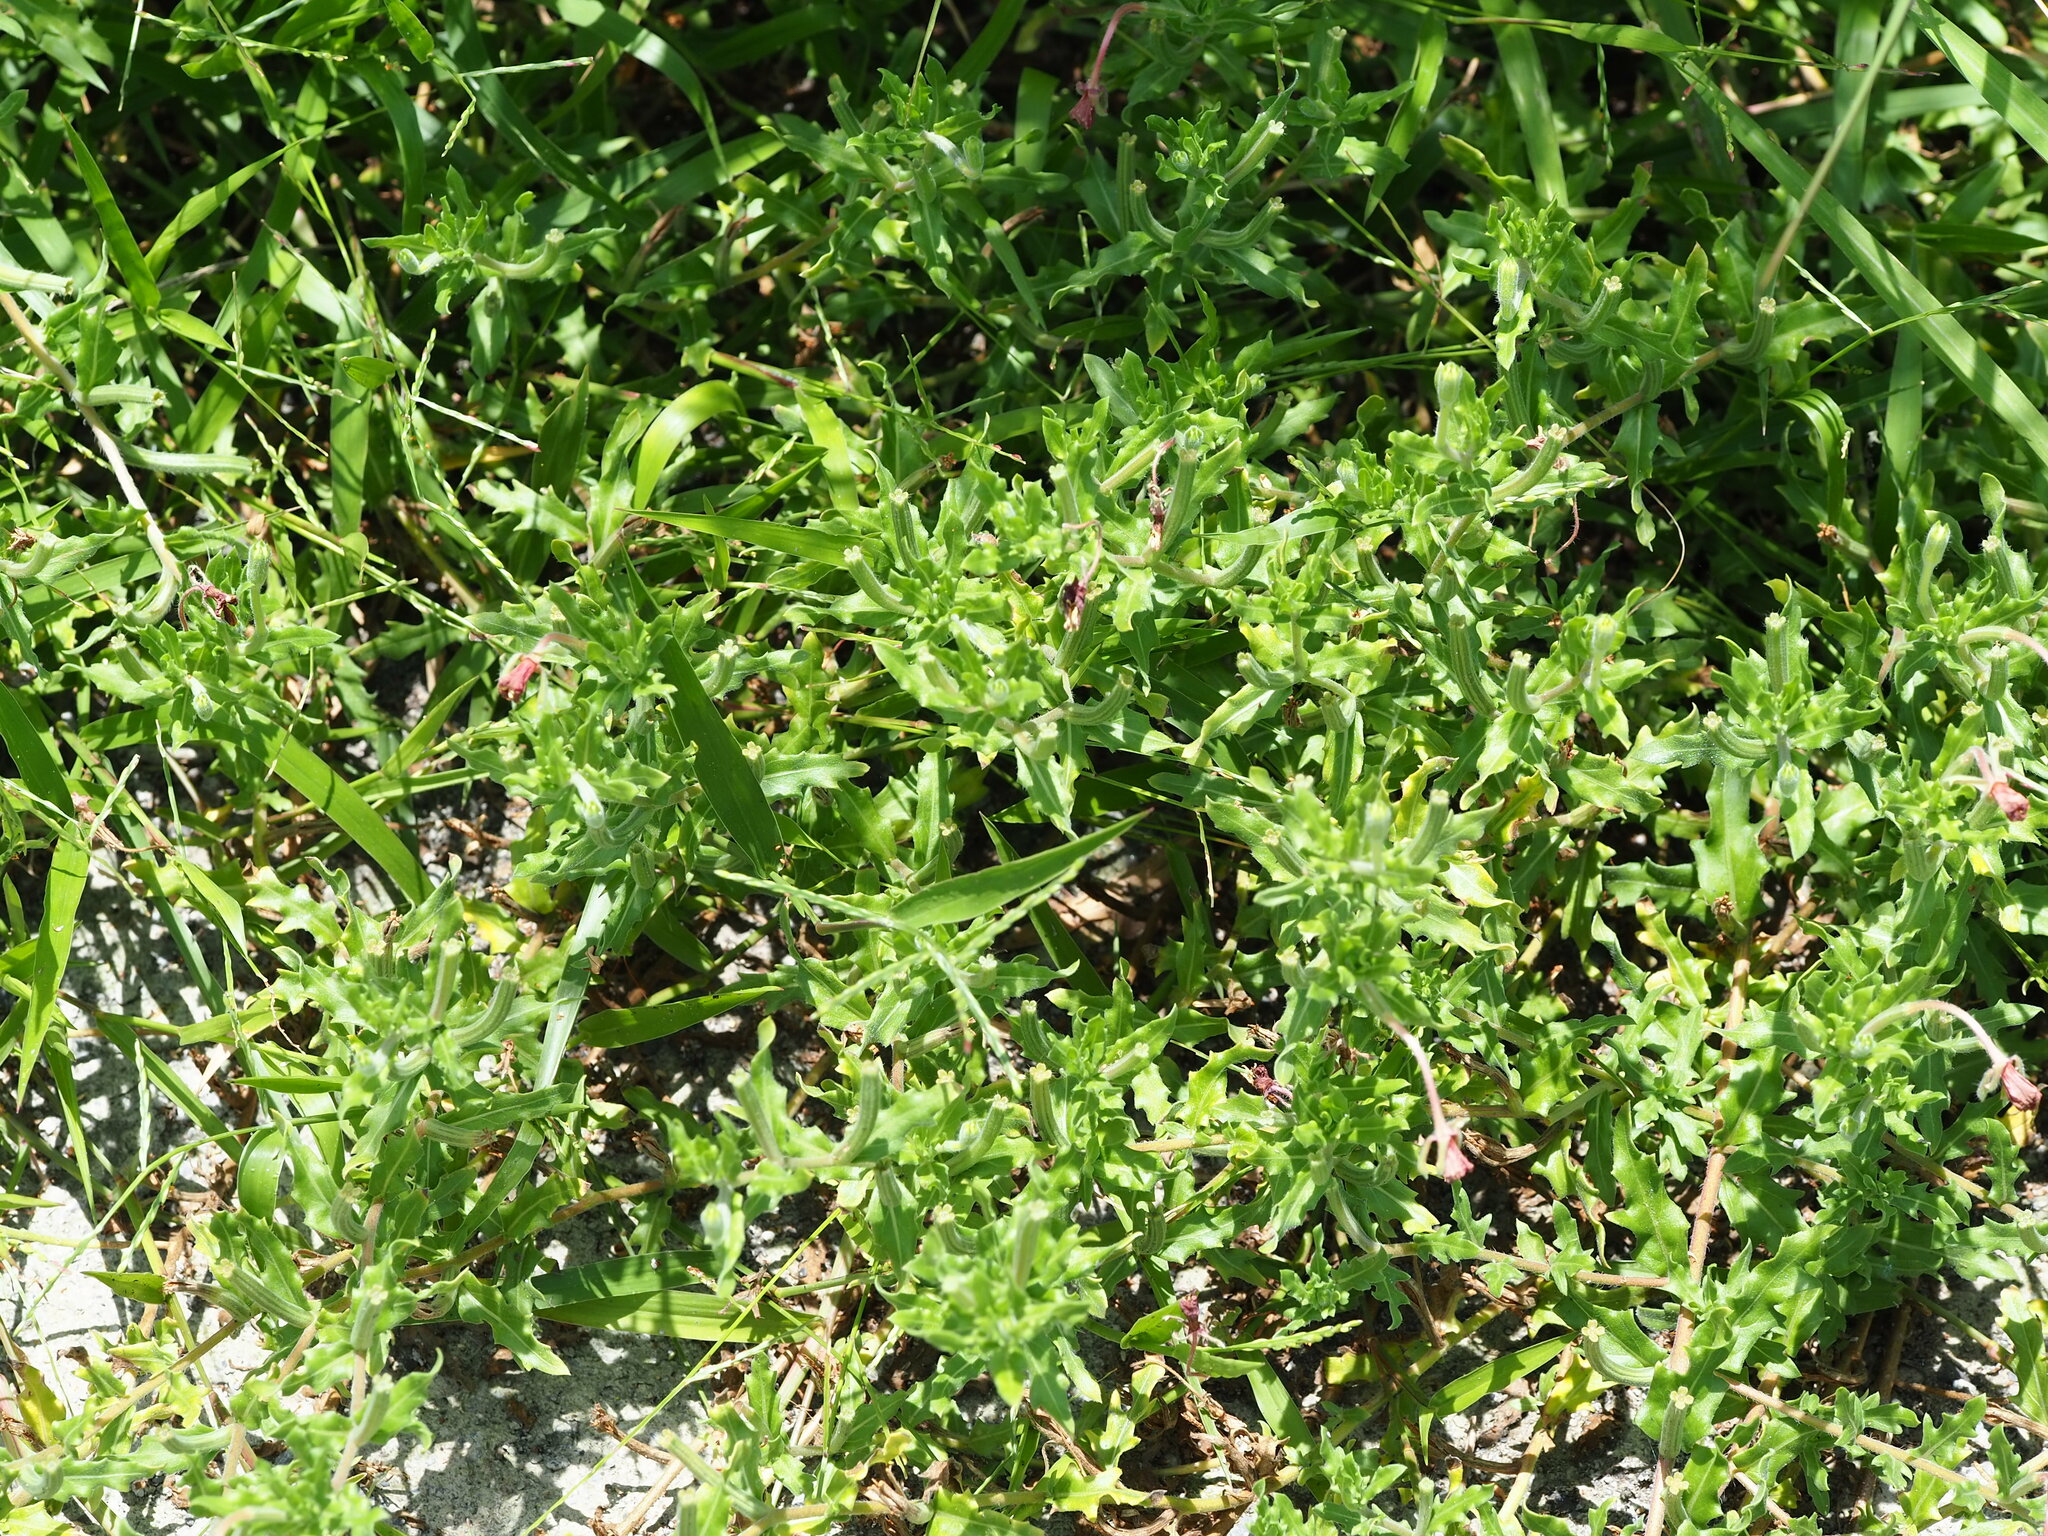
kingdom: Plantae
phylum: Tracheophyta
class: Magnoliopsida
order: Myrtales
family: Onagraceae
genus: Oenothera
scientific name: Oenothera laciniata
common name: Cut-leaved evening-primrose
